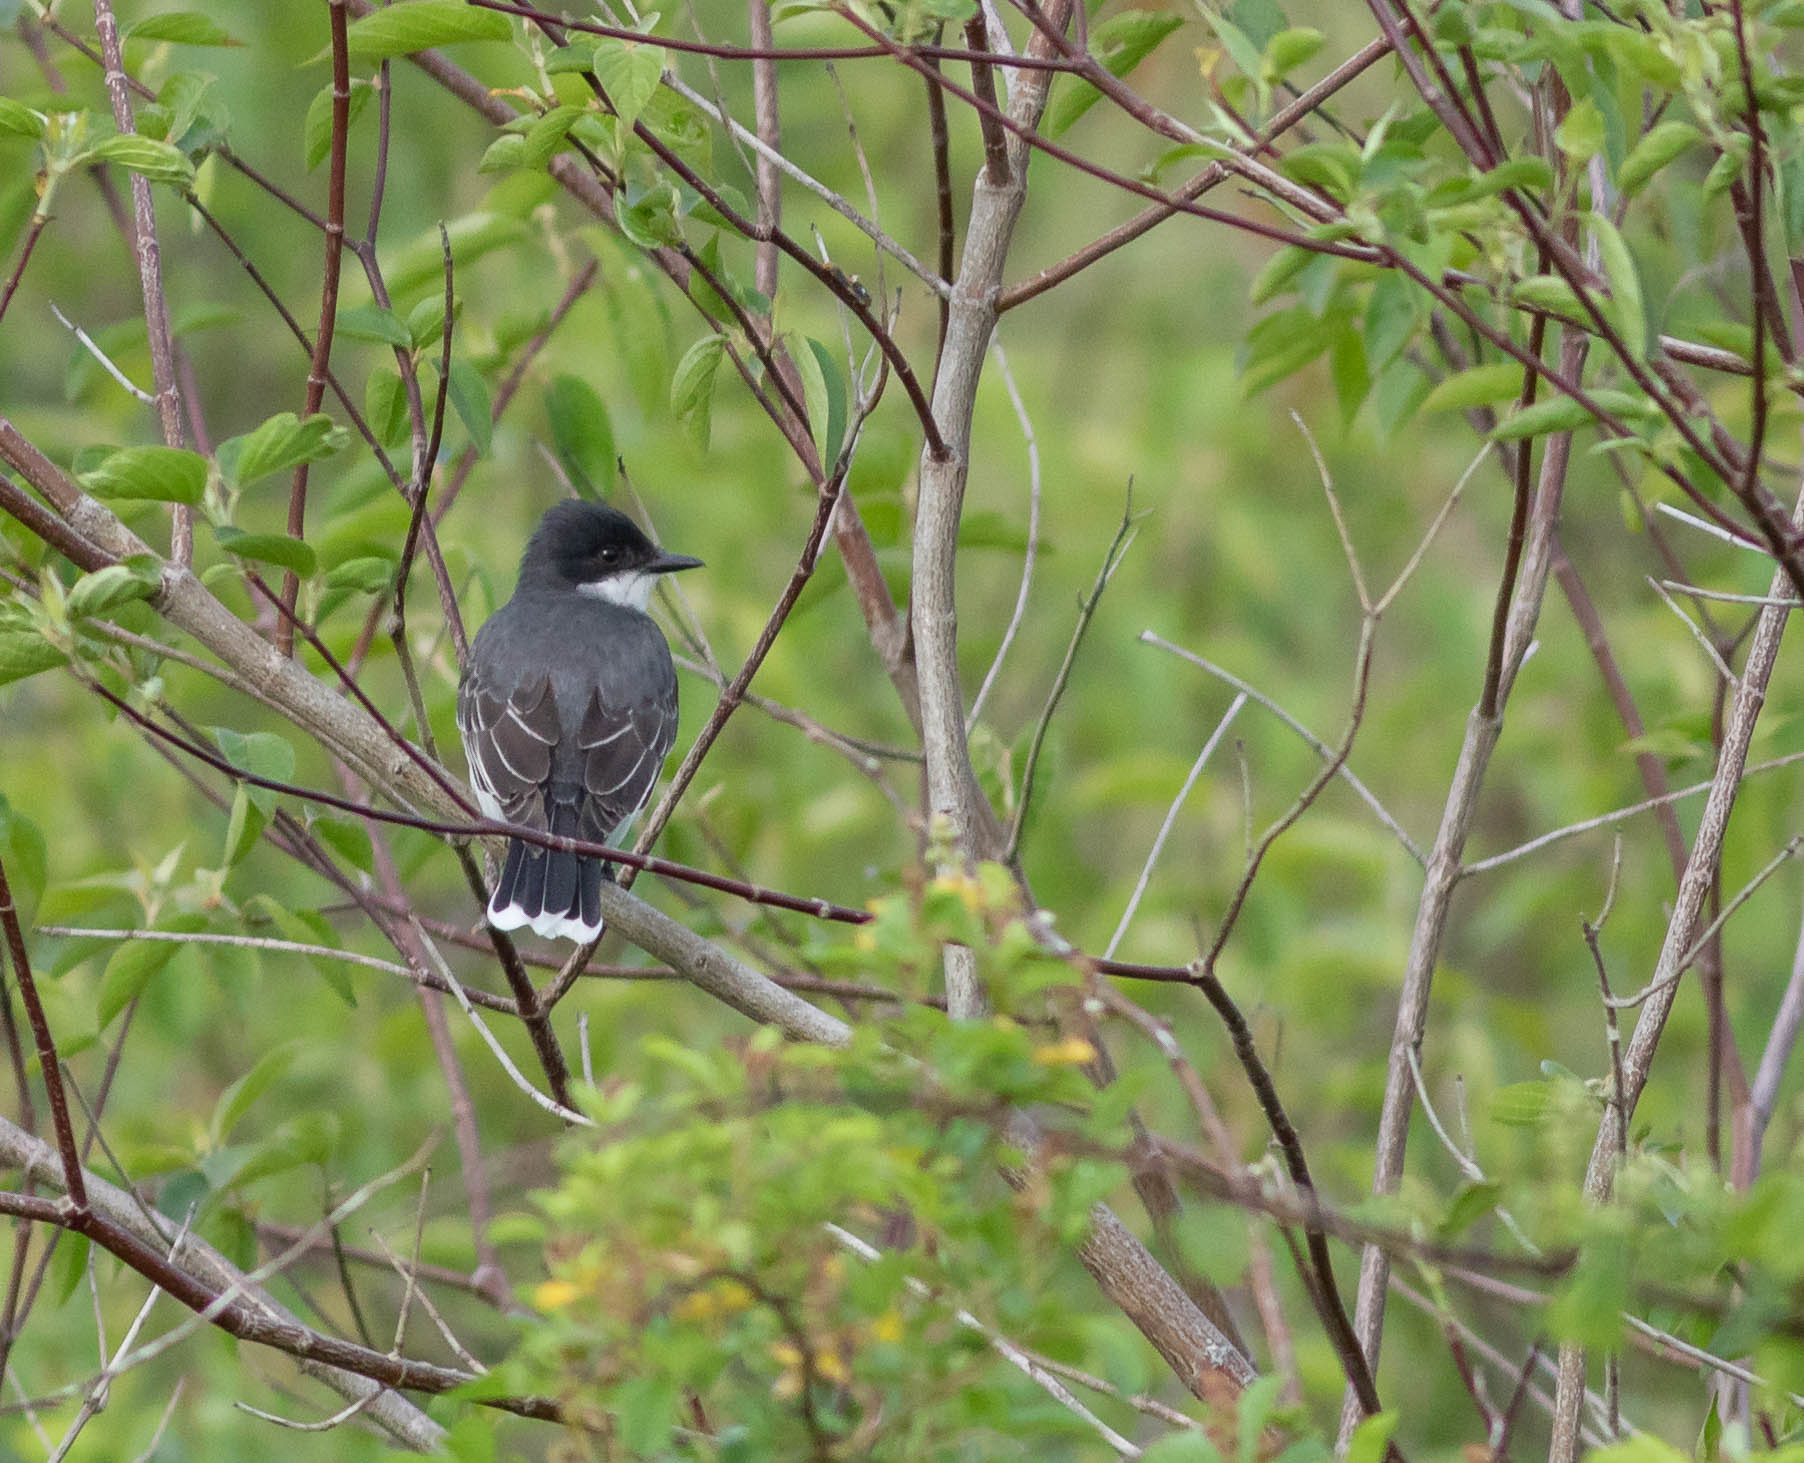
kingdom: Animalia
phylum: Chordata
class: Aves
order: Passeriformes
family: Tyrannidae
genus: Tyrannus
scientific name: Tyrannus tyrannus
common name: Eastern kingbird
